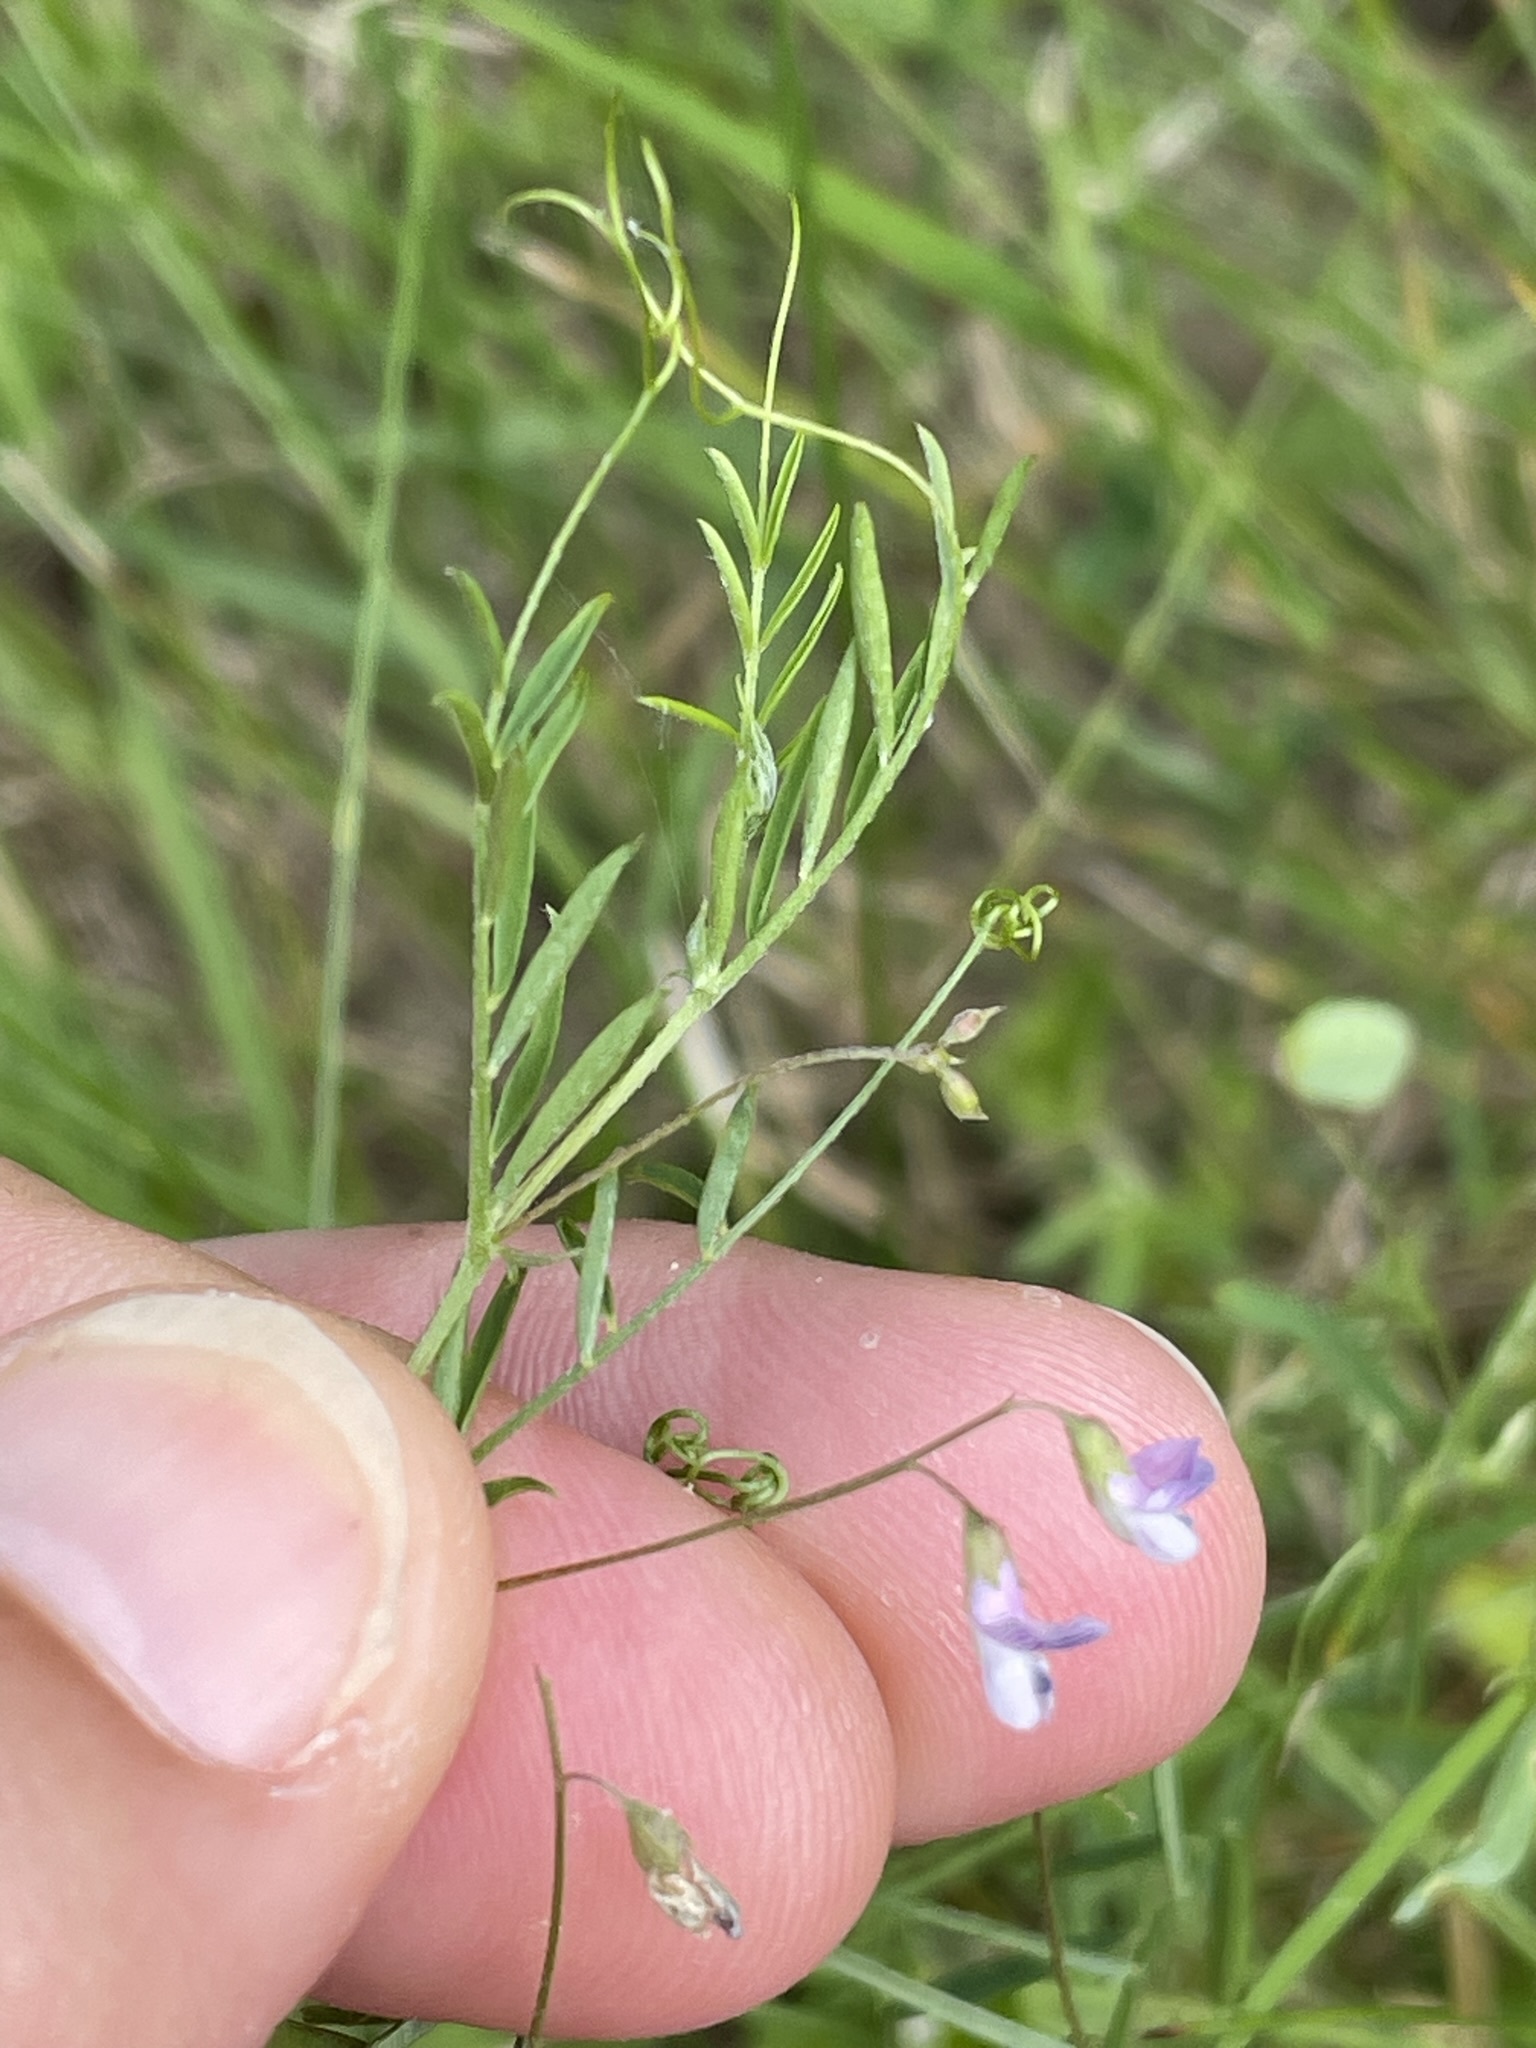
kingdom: Plantae
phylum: Tracheophyta
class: Magnoliopsida
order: Fabales
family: Fabaceae
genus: Vicia
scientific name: Vicia tetrasperma
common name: Smooth tare
